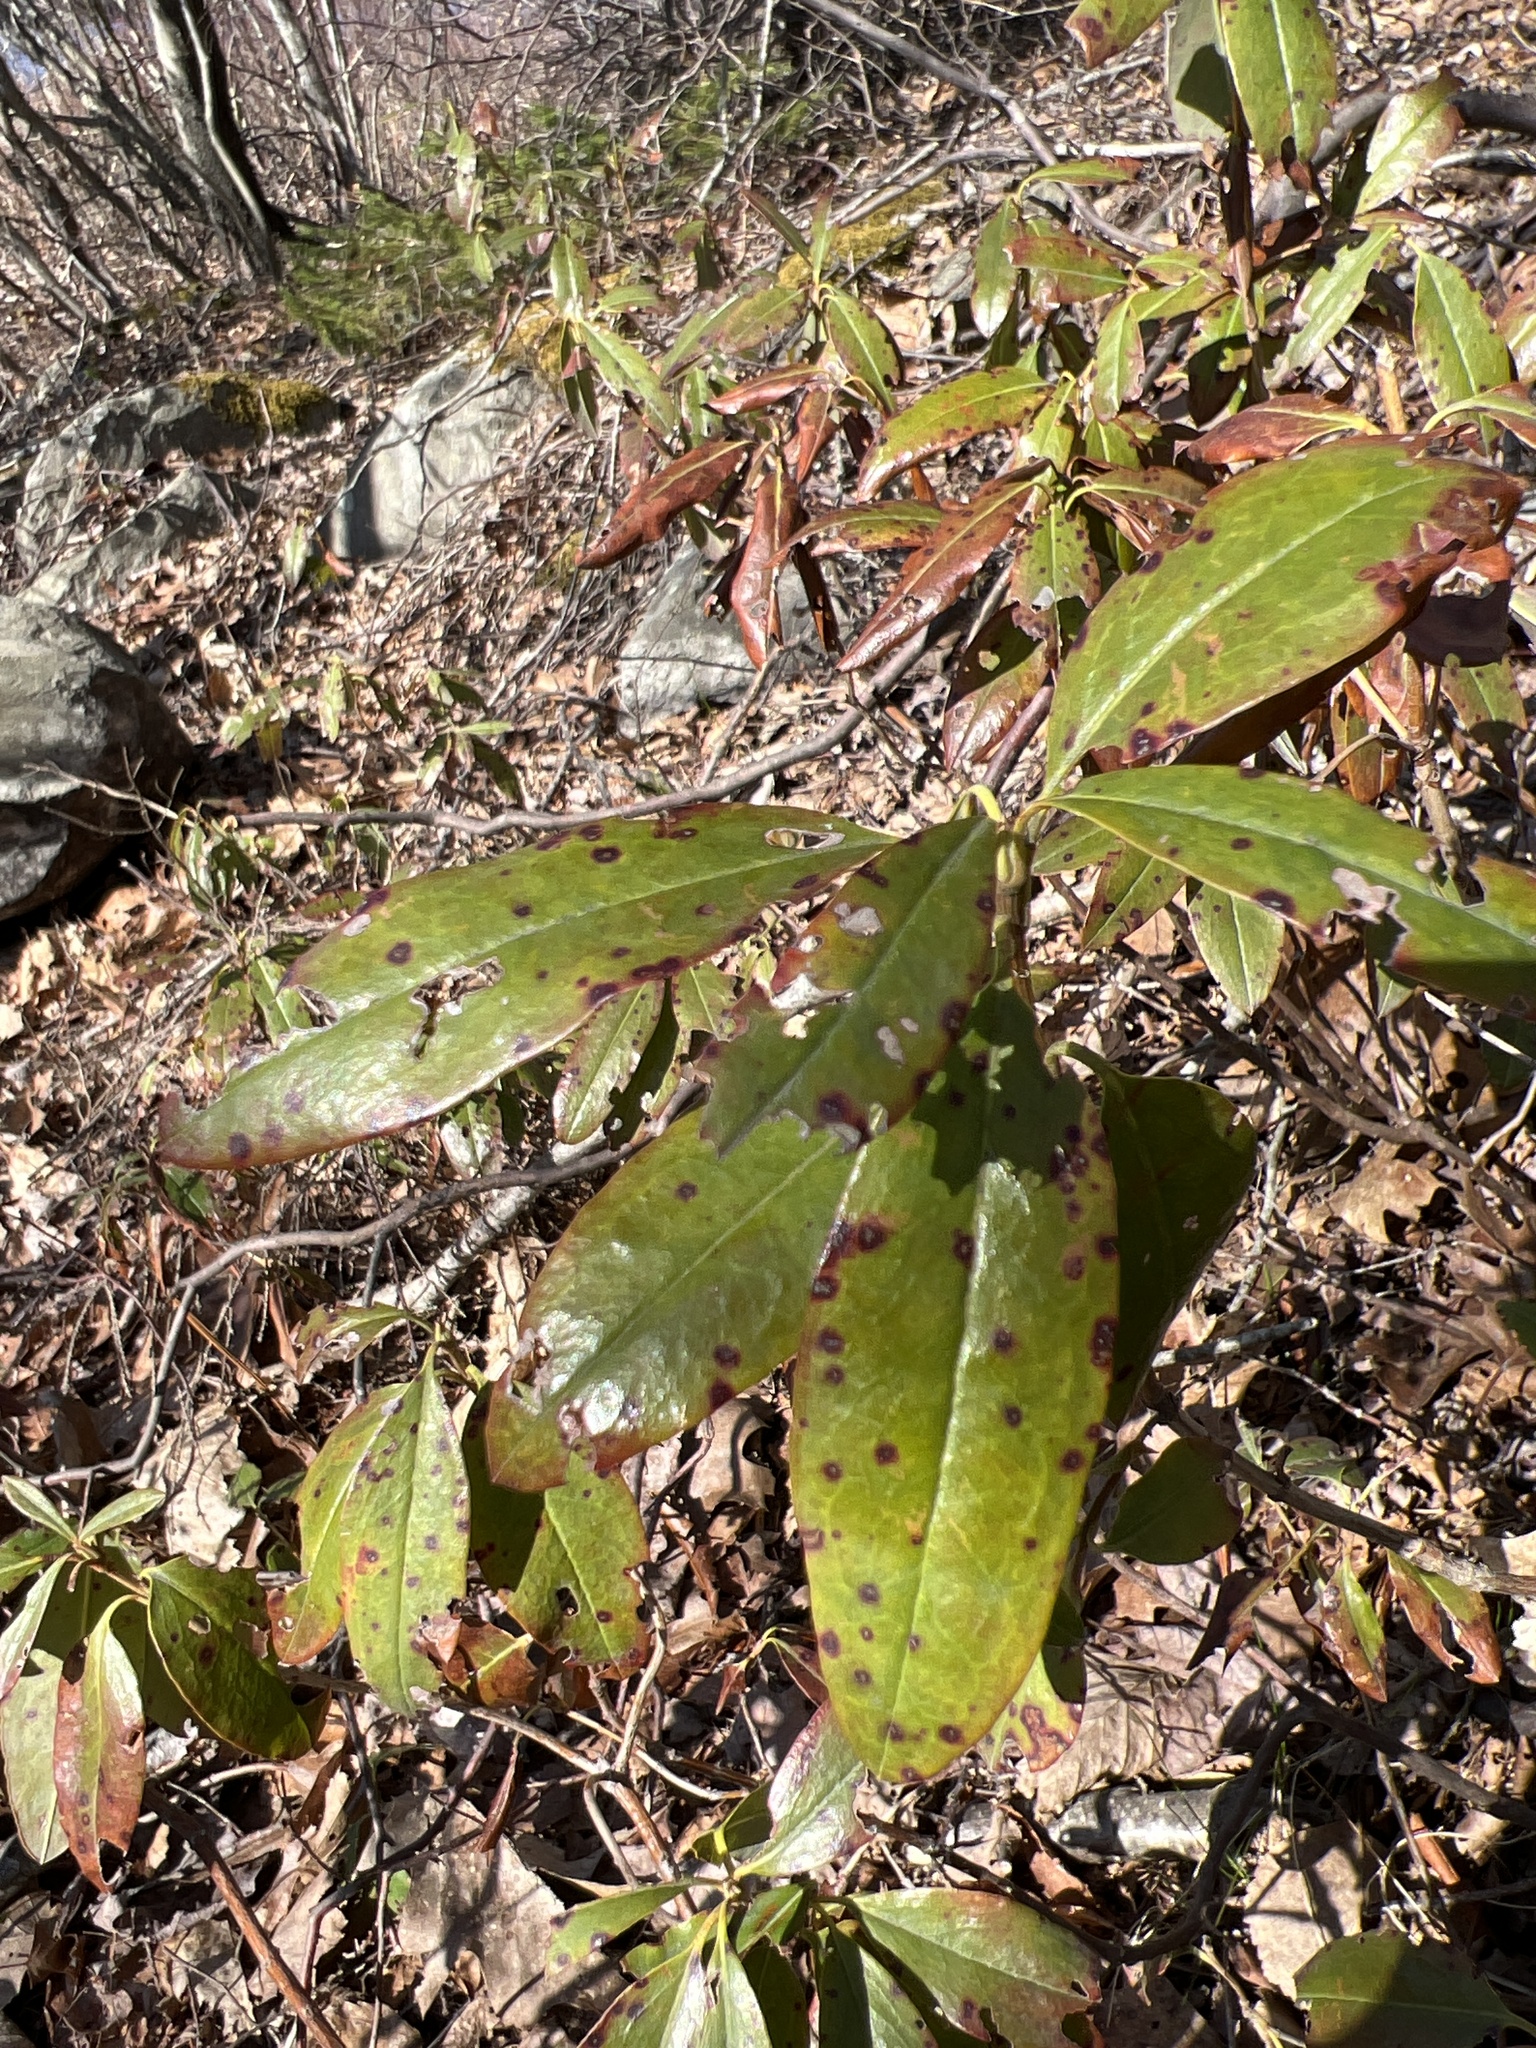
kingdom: Plantae
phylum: Tracheophyta
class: Magnoliopsida
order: Ericales
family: Ericaceae
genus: Kalmia
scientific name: Kalmia angustifolia
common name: Sheep-laurel
